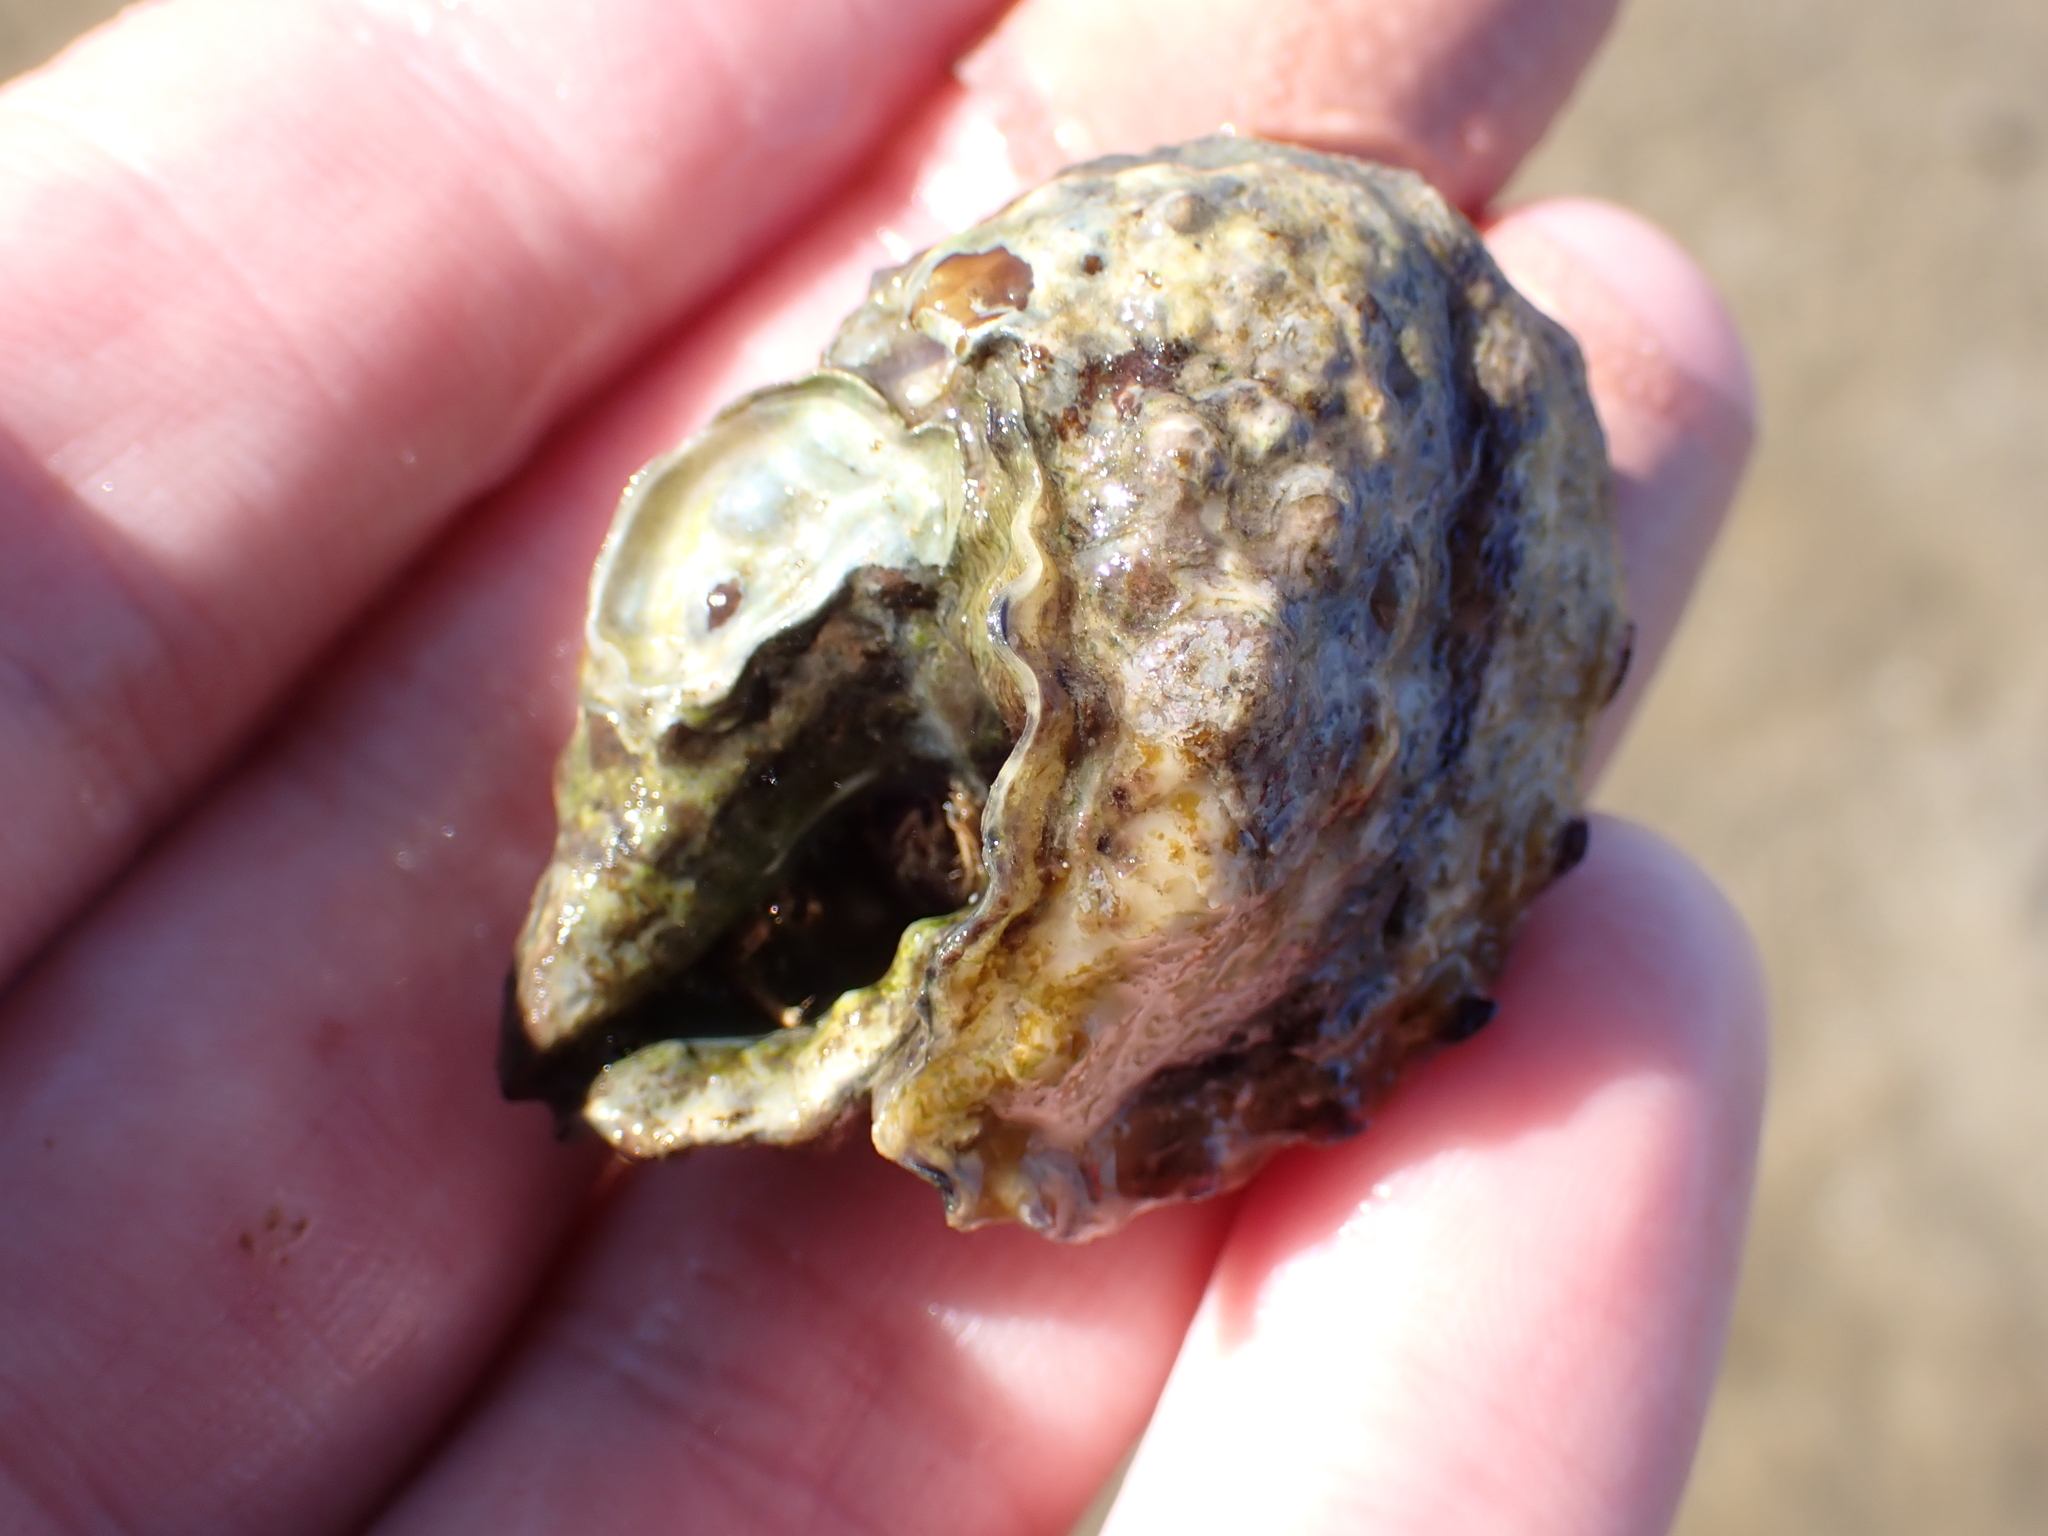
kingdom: Animalia
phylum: Mollusca
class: Gastropoda
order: Neogastropoda
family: Muricidae
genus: Tenguella
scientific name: Tenguella marginalba
